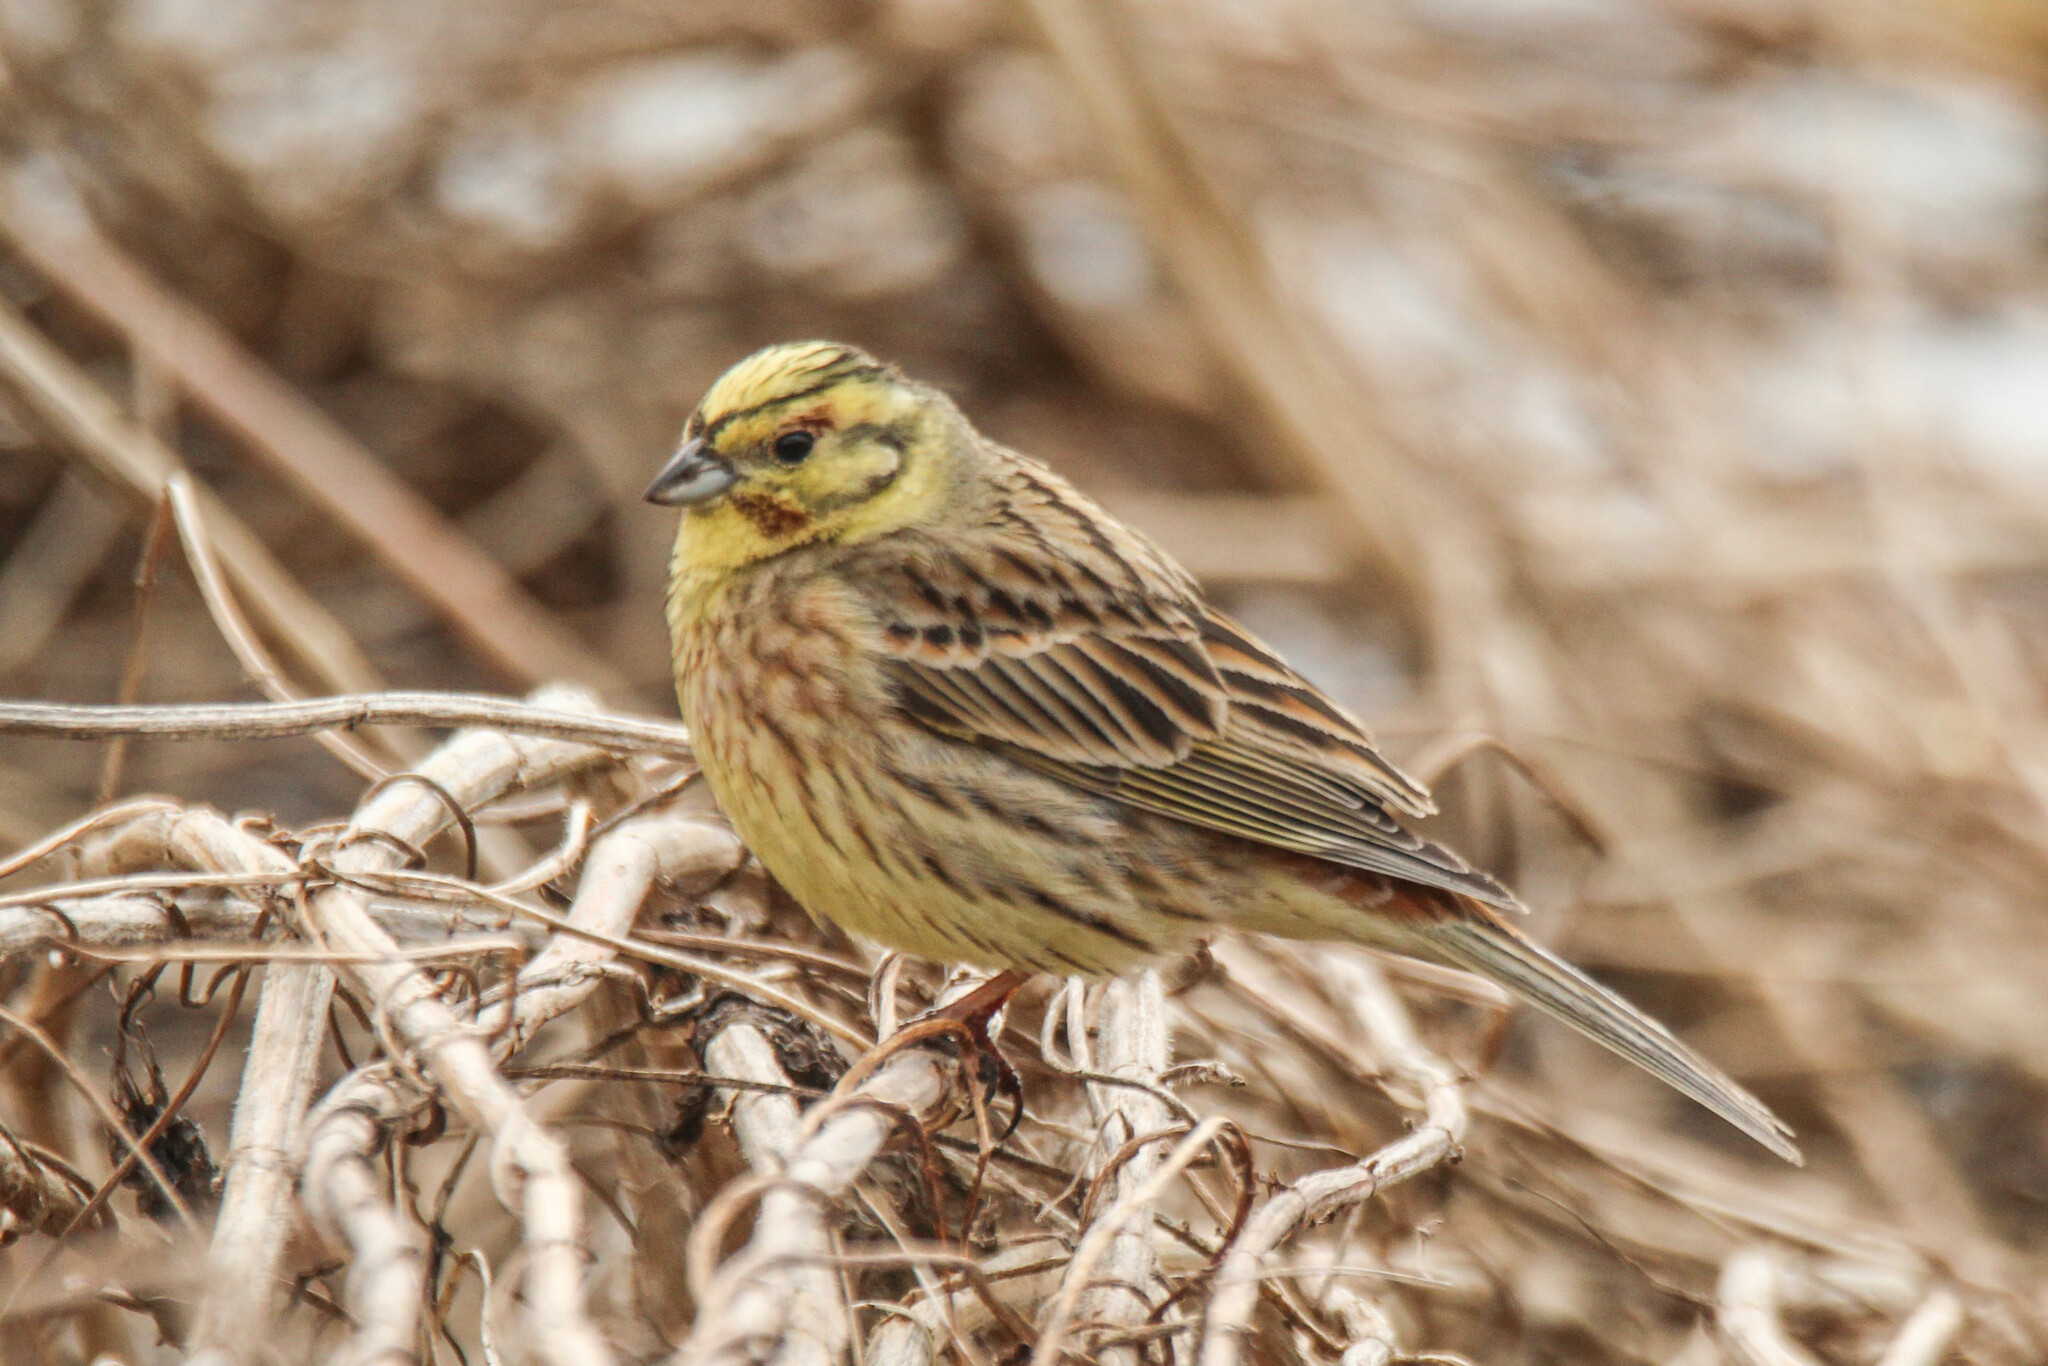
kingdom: Animalia
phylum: Chordata
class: Aves
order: Passeriformes
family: Emberizidae
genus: Emberiza
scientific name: Emberiza
